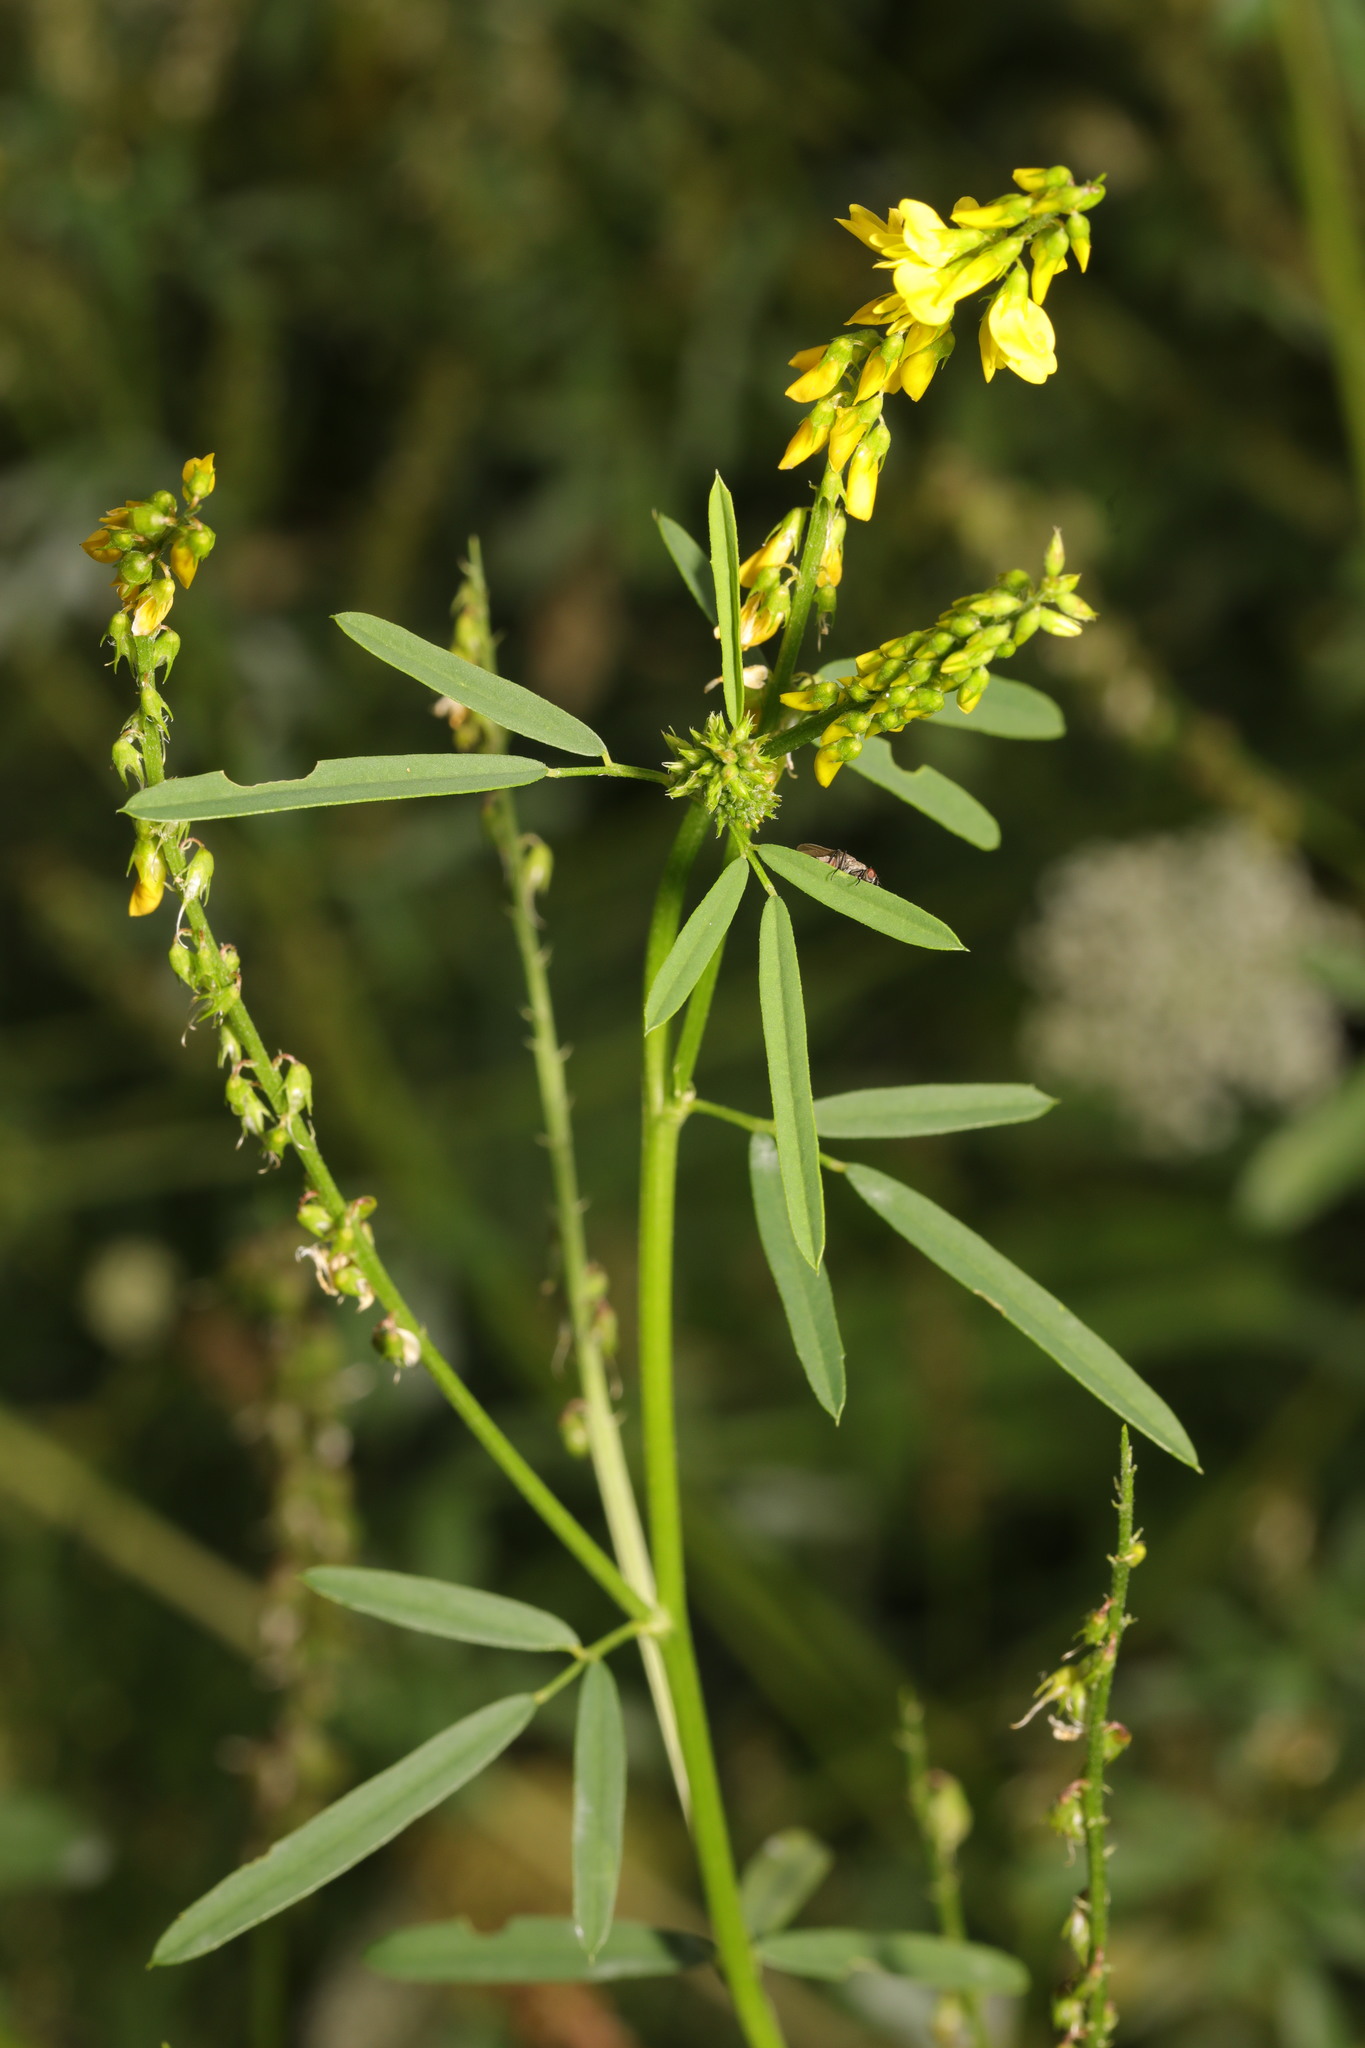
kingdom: Plantae
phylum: Tracheophyta
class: Magnoliopsida
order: Fabales
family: Fabaceae
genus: Melilotus
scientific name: Melilotus officinalis
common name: Sweetclover
